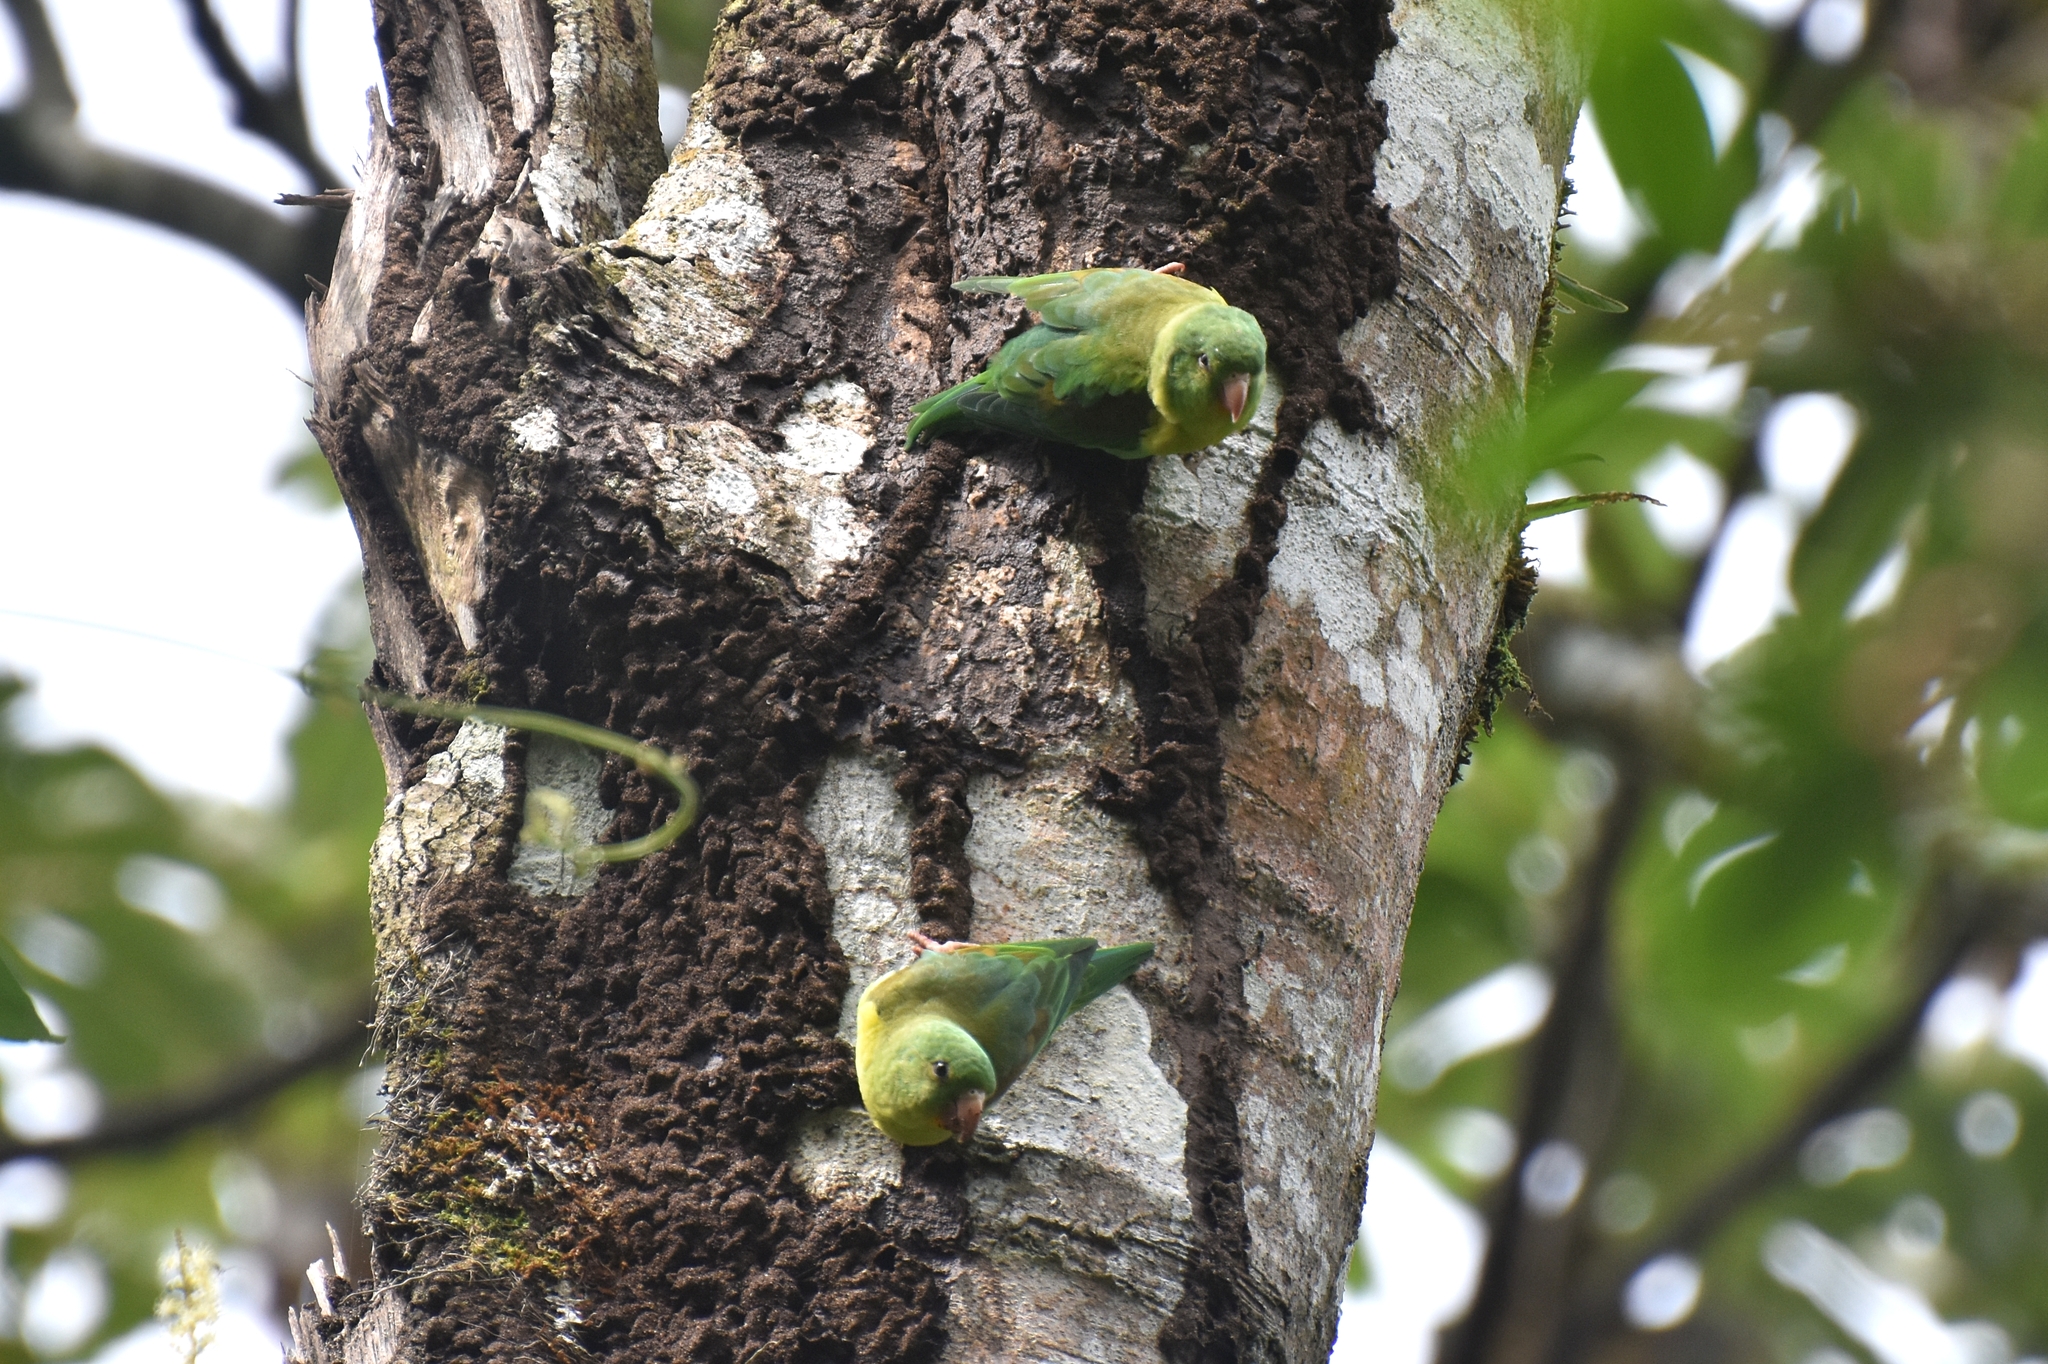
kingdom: Animalia
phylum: Chordata
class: Aves
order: Psittaciformes
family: Psittacidae
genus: Brotogeris
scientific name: Brotogeris jugularis
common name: Orange-chinned parakeet
